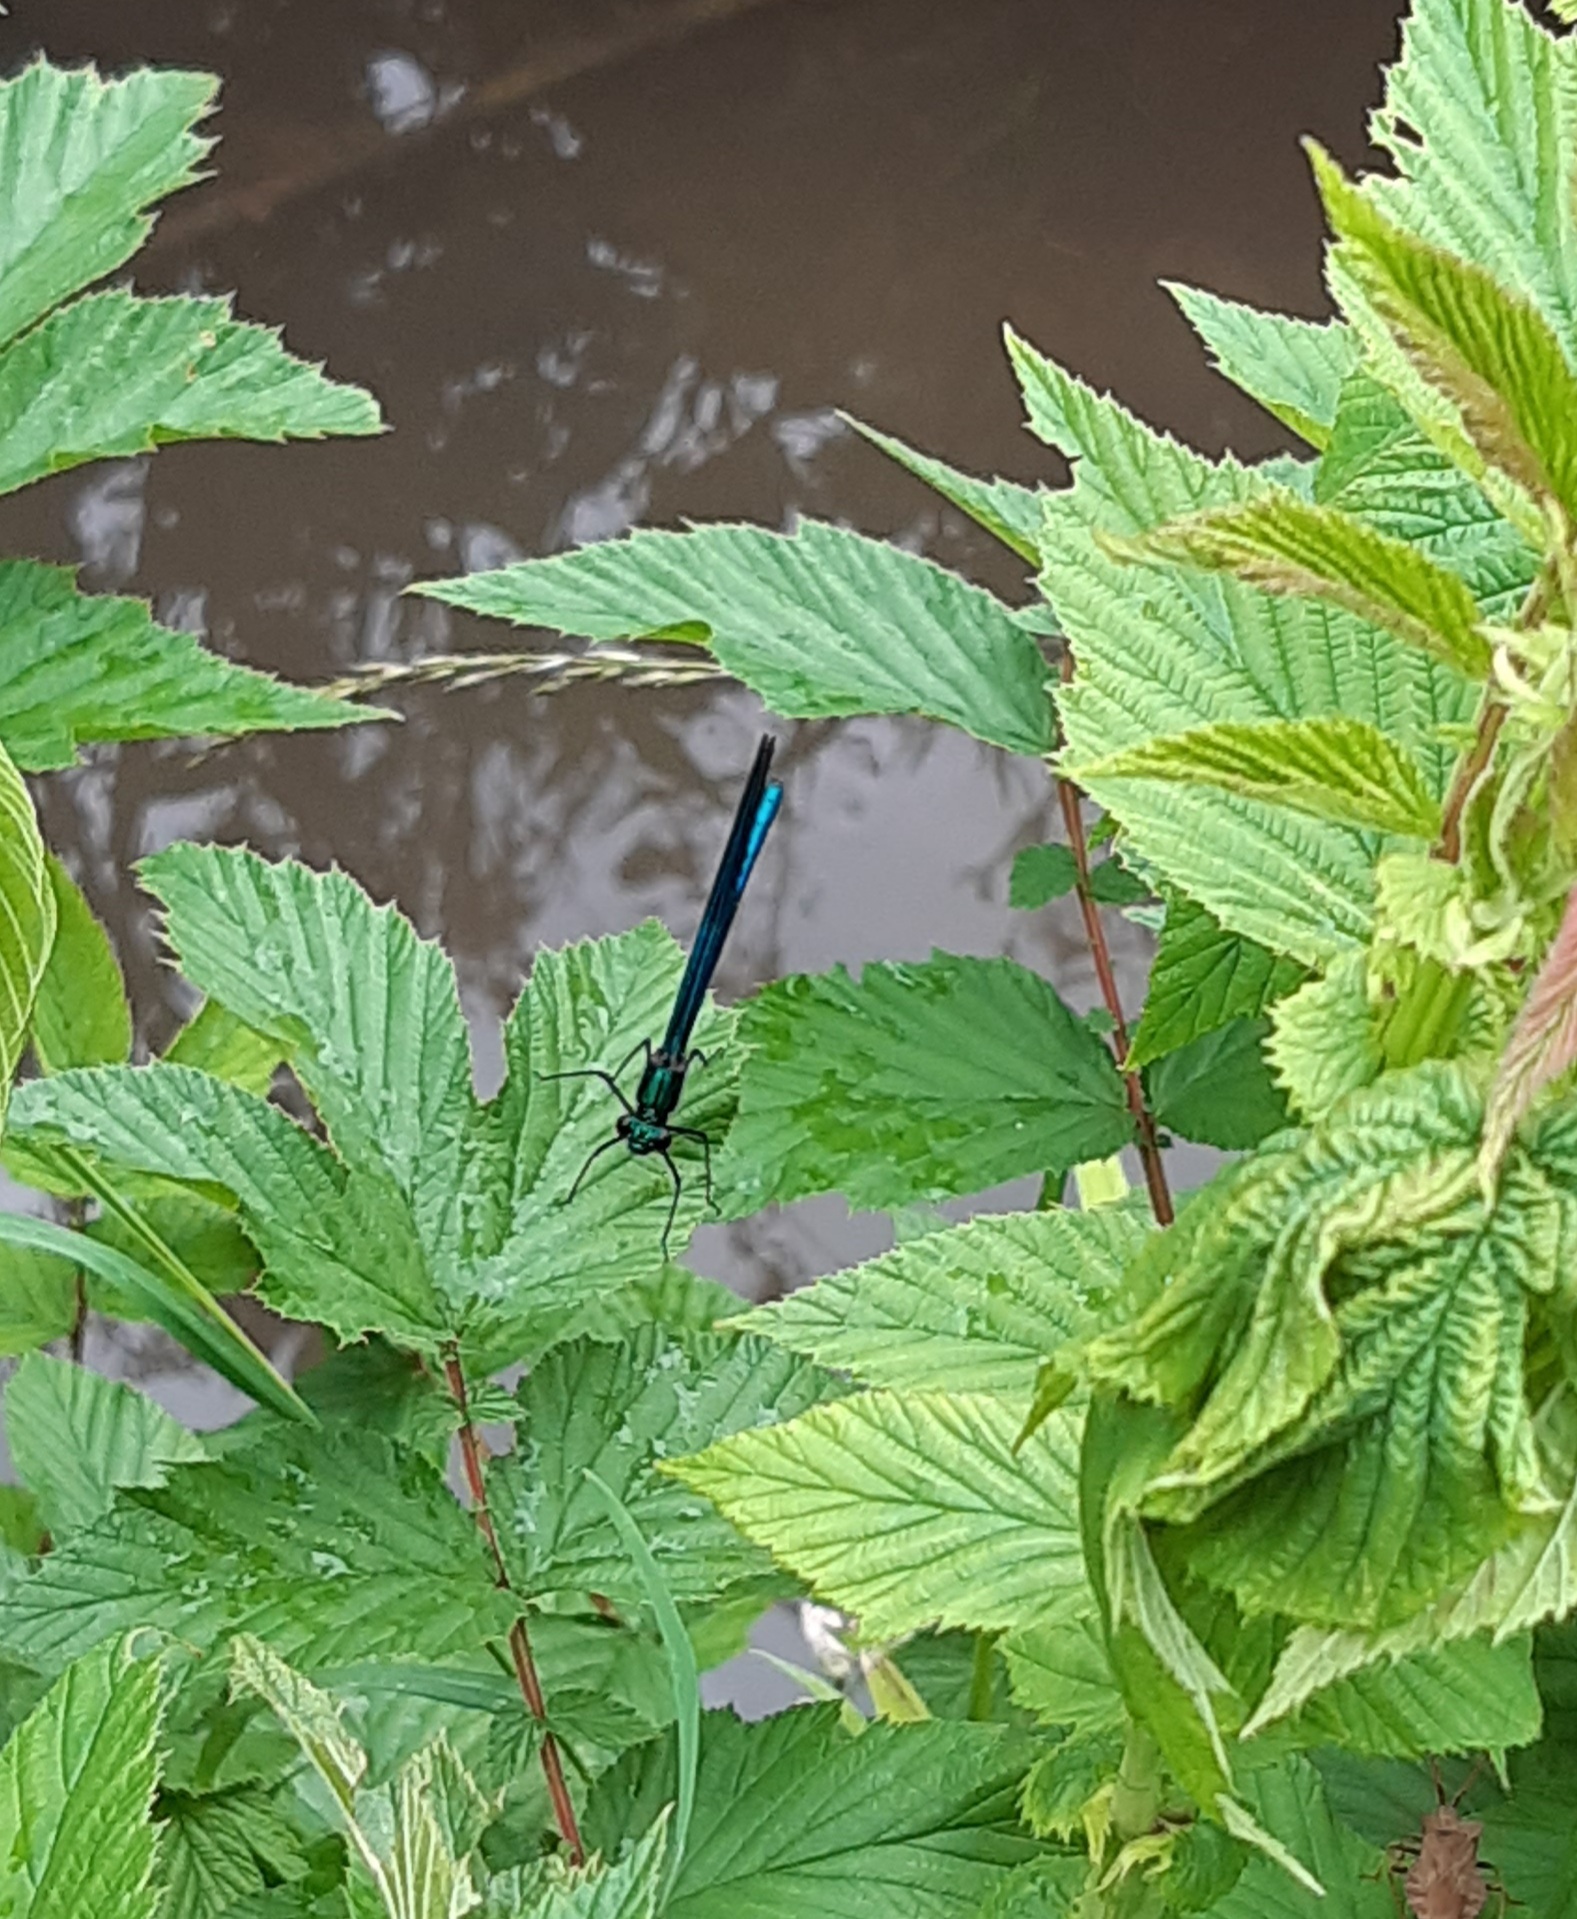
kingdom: Animalia
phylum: Arthropoda
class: Insecta
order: Odonata
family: Calopterygidae
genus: Calopteryx
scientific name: Calopteryx virgo
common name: Beautiful demoiselle
